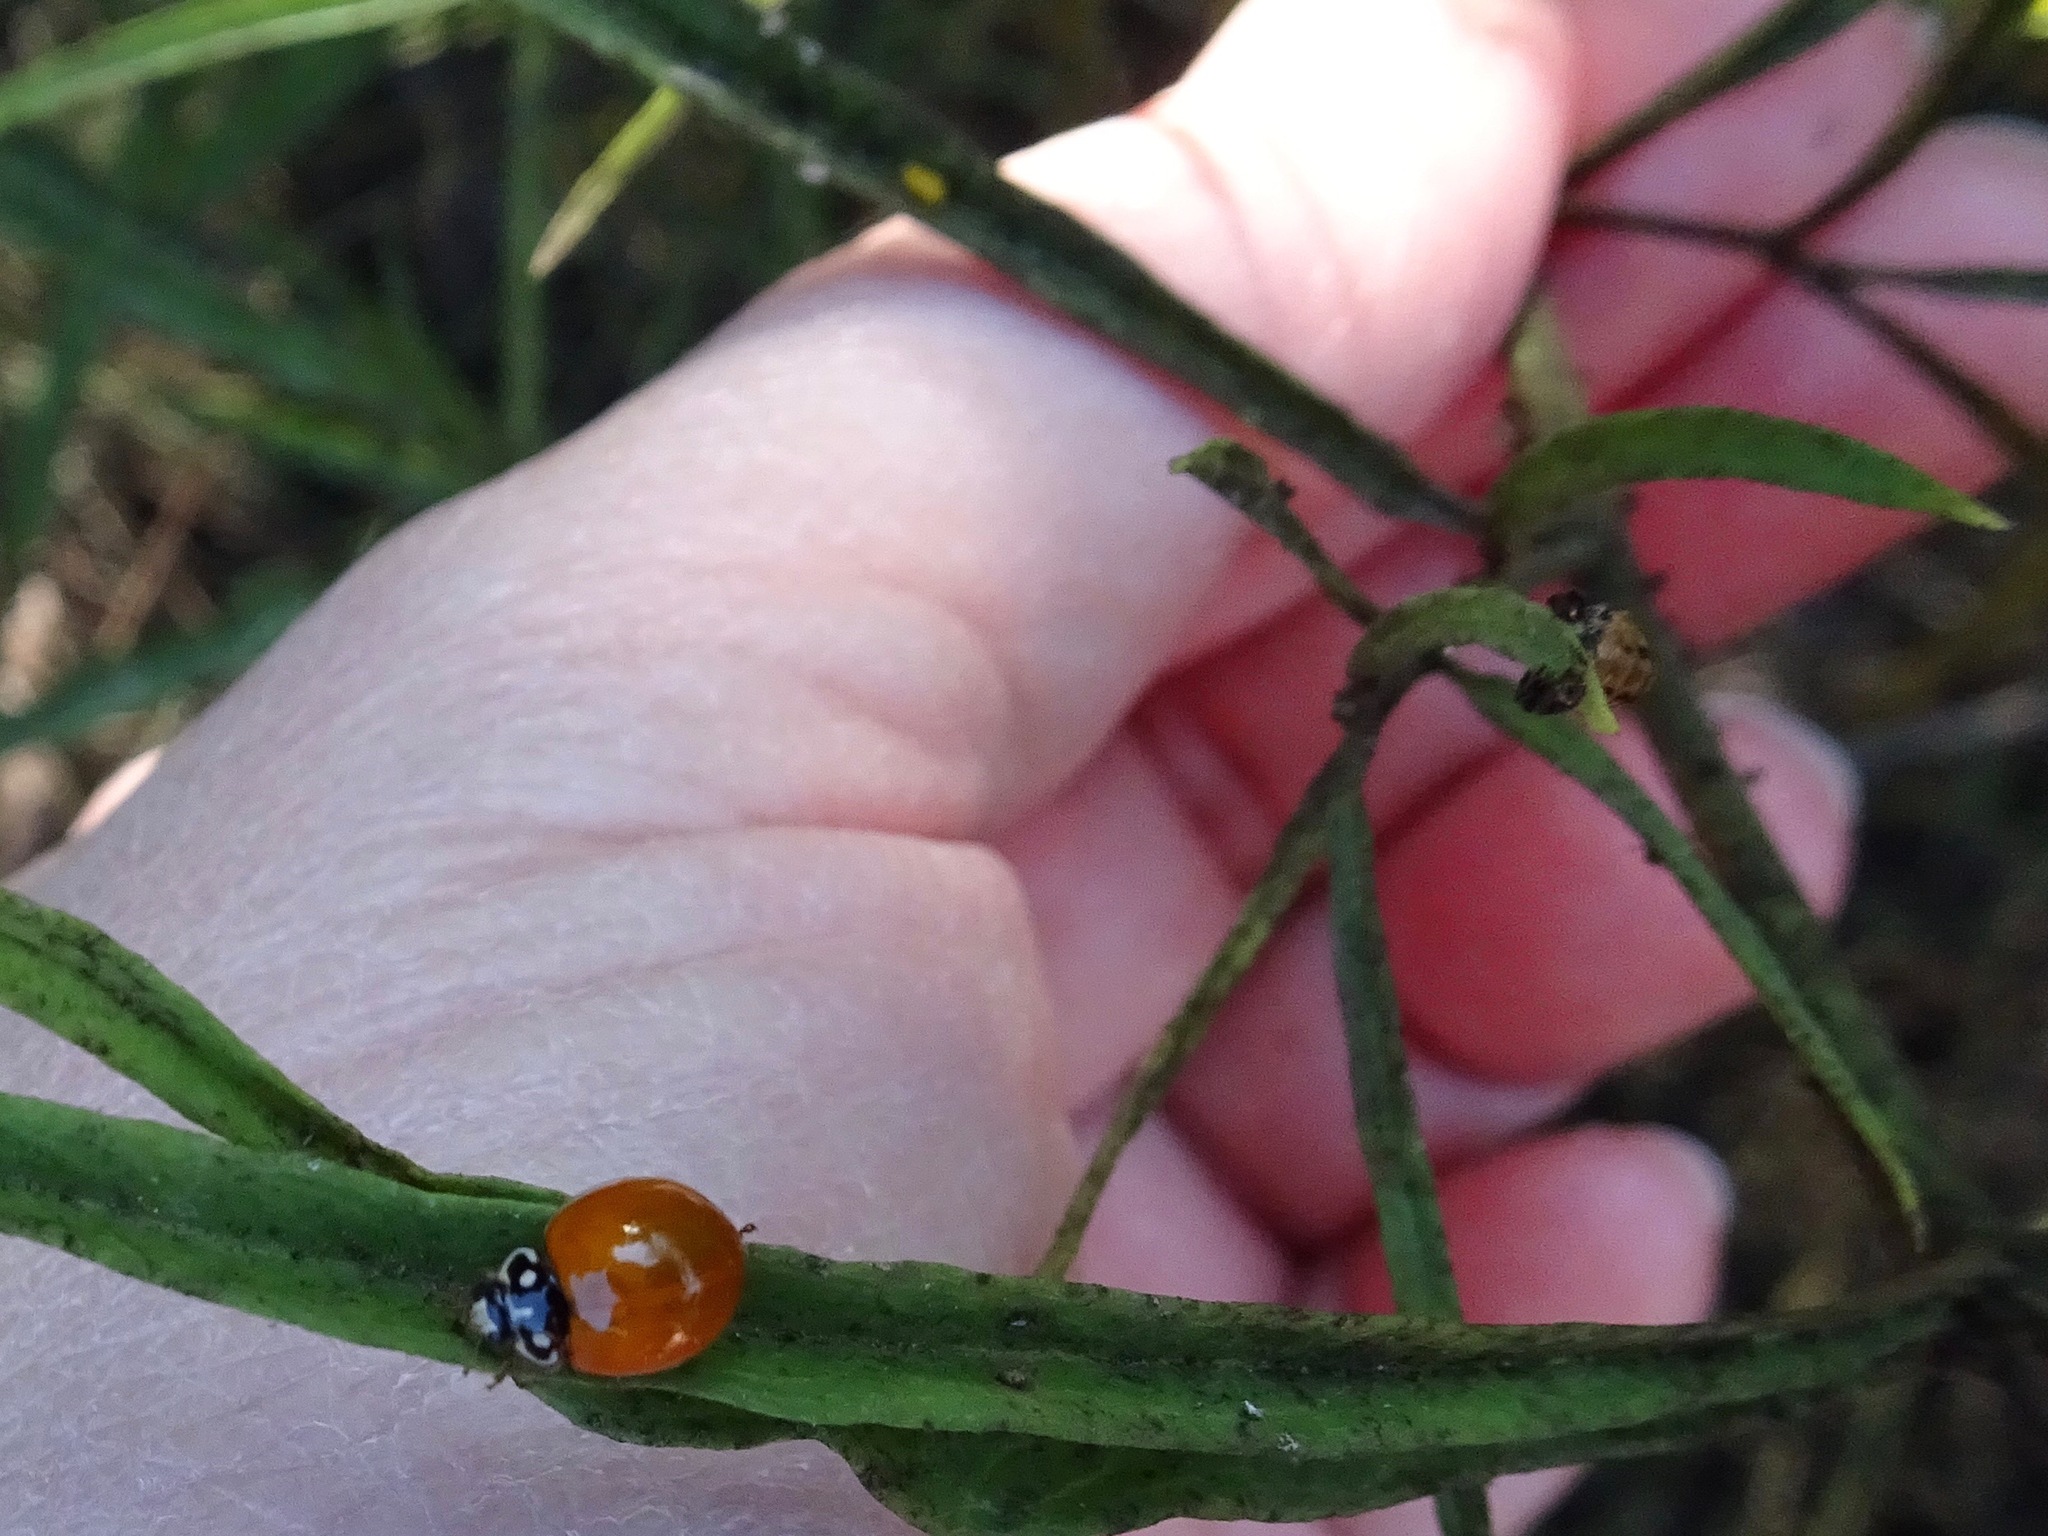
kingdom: Animalia
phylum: Arthropoda
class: Insecta
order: Coleoptera
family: Coccinellidae
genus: Cycloneda
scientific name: Cycloneda sanguinea
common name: Ladybird beetle
